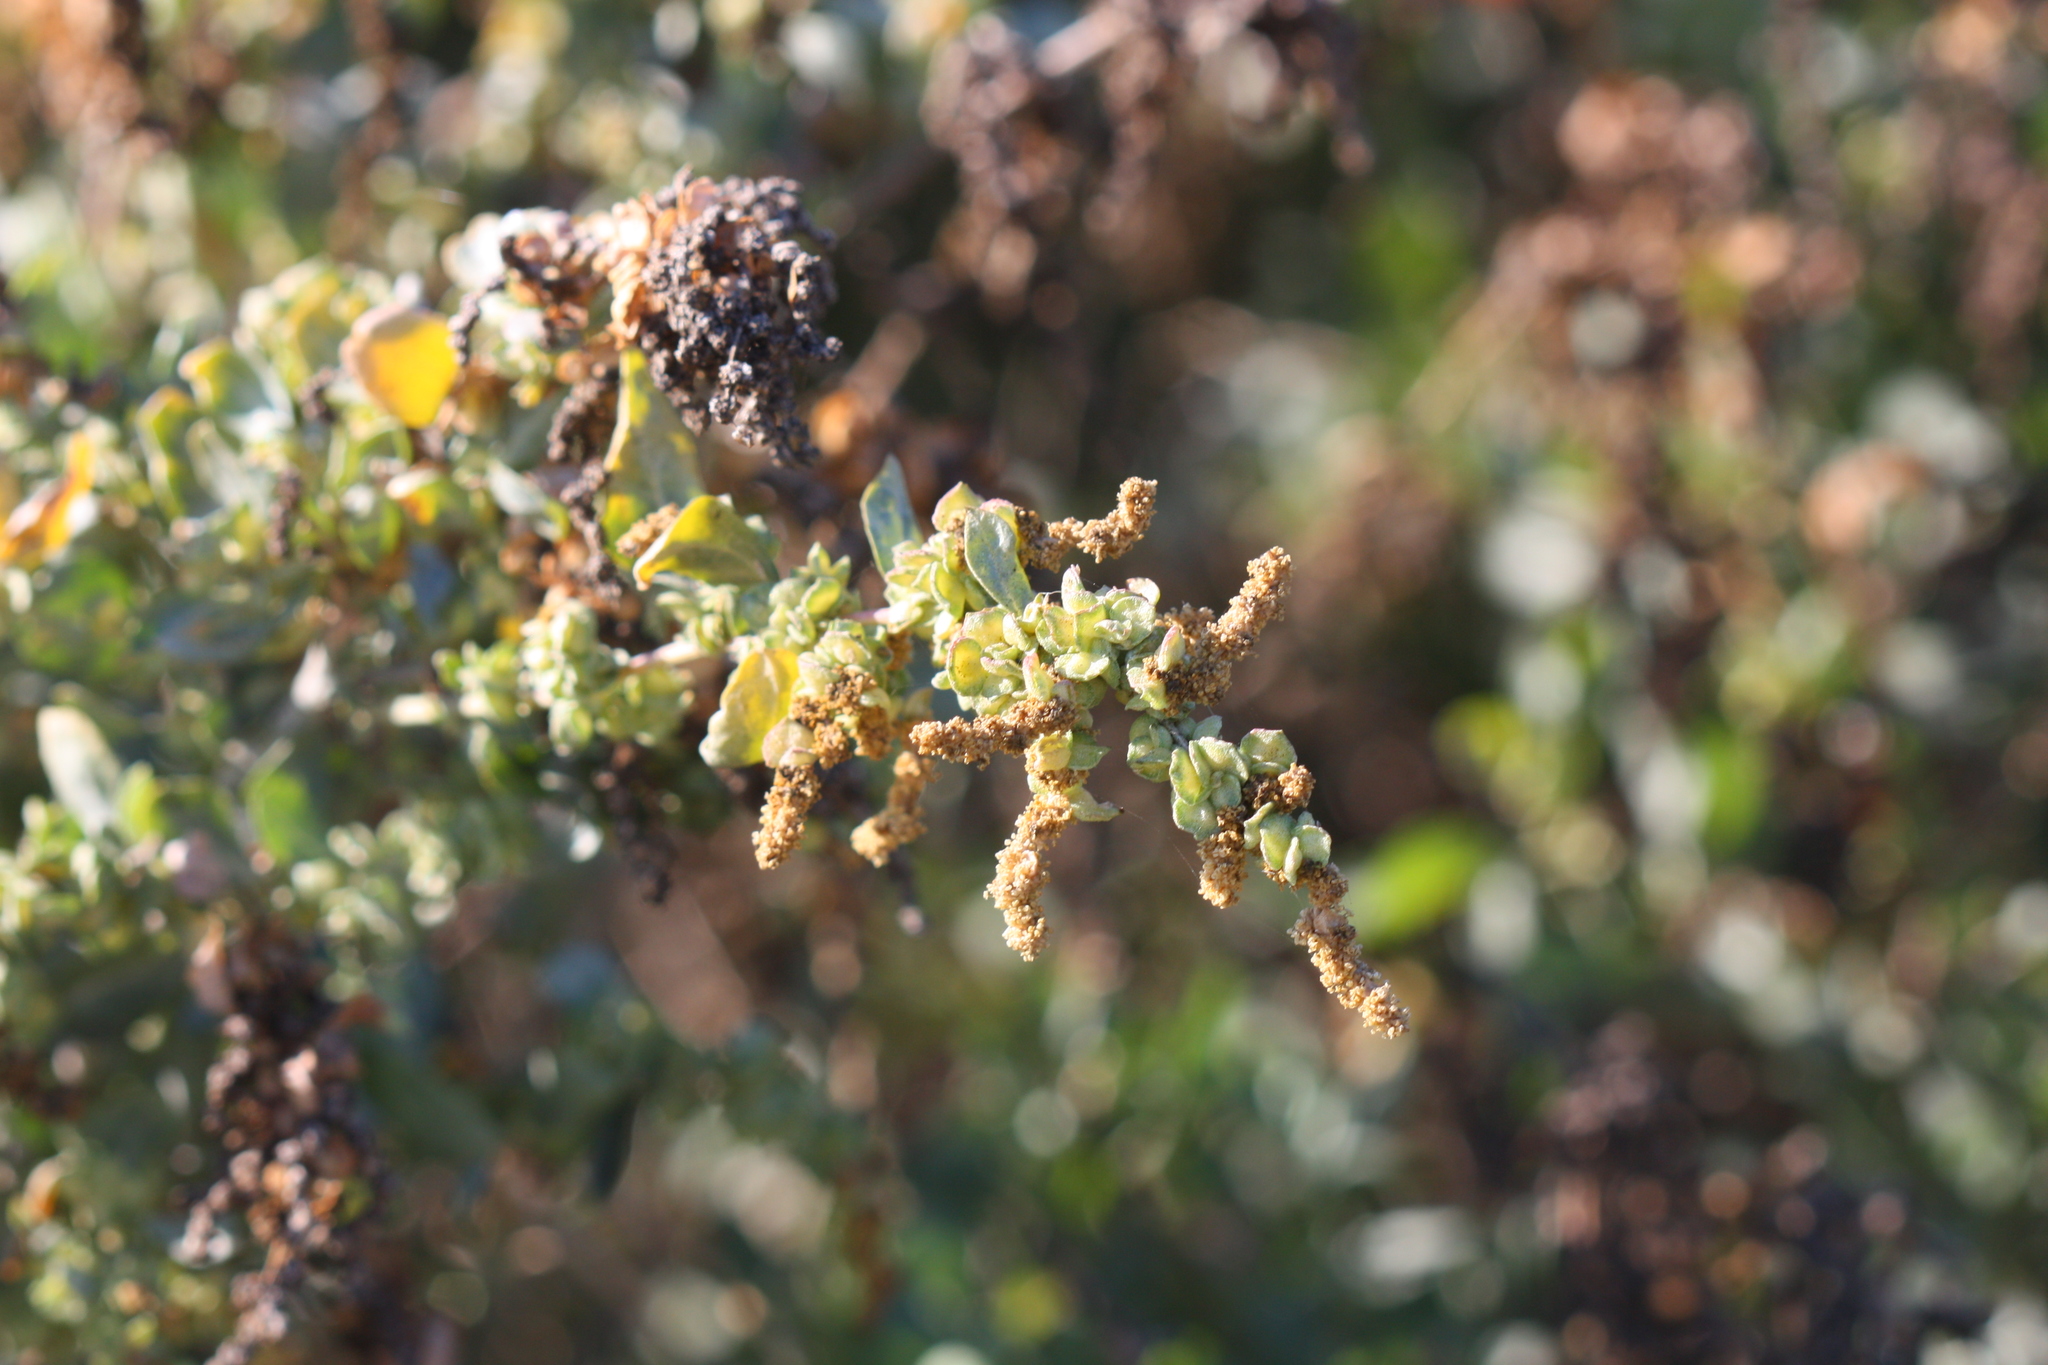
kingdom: Plantae
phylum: Tracheophyta
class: Magnoliopsida
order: Caryophyllales
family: Amaranthaceae
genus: Atriplex
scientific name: Atriplex lentiformis
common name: Big saltbush
